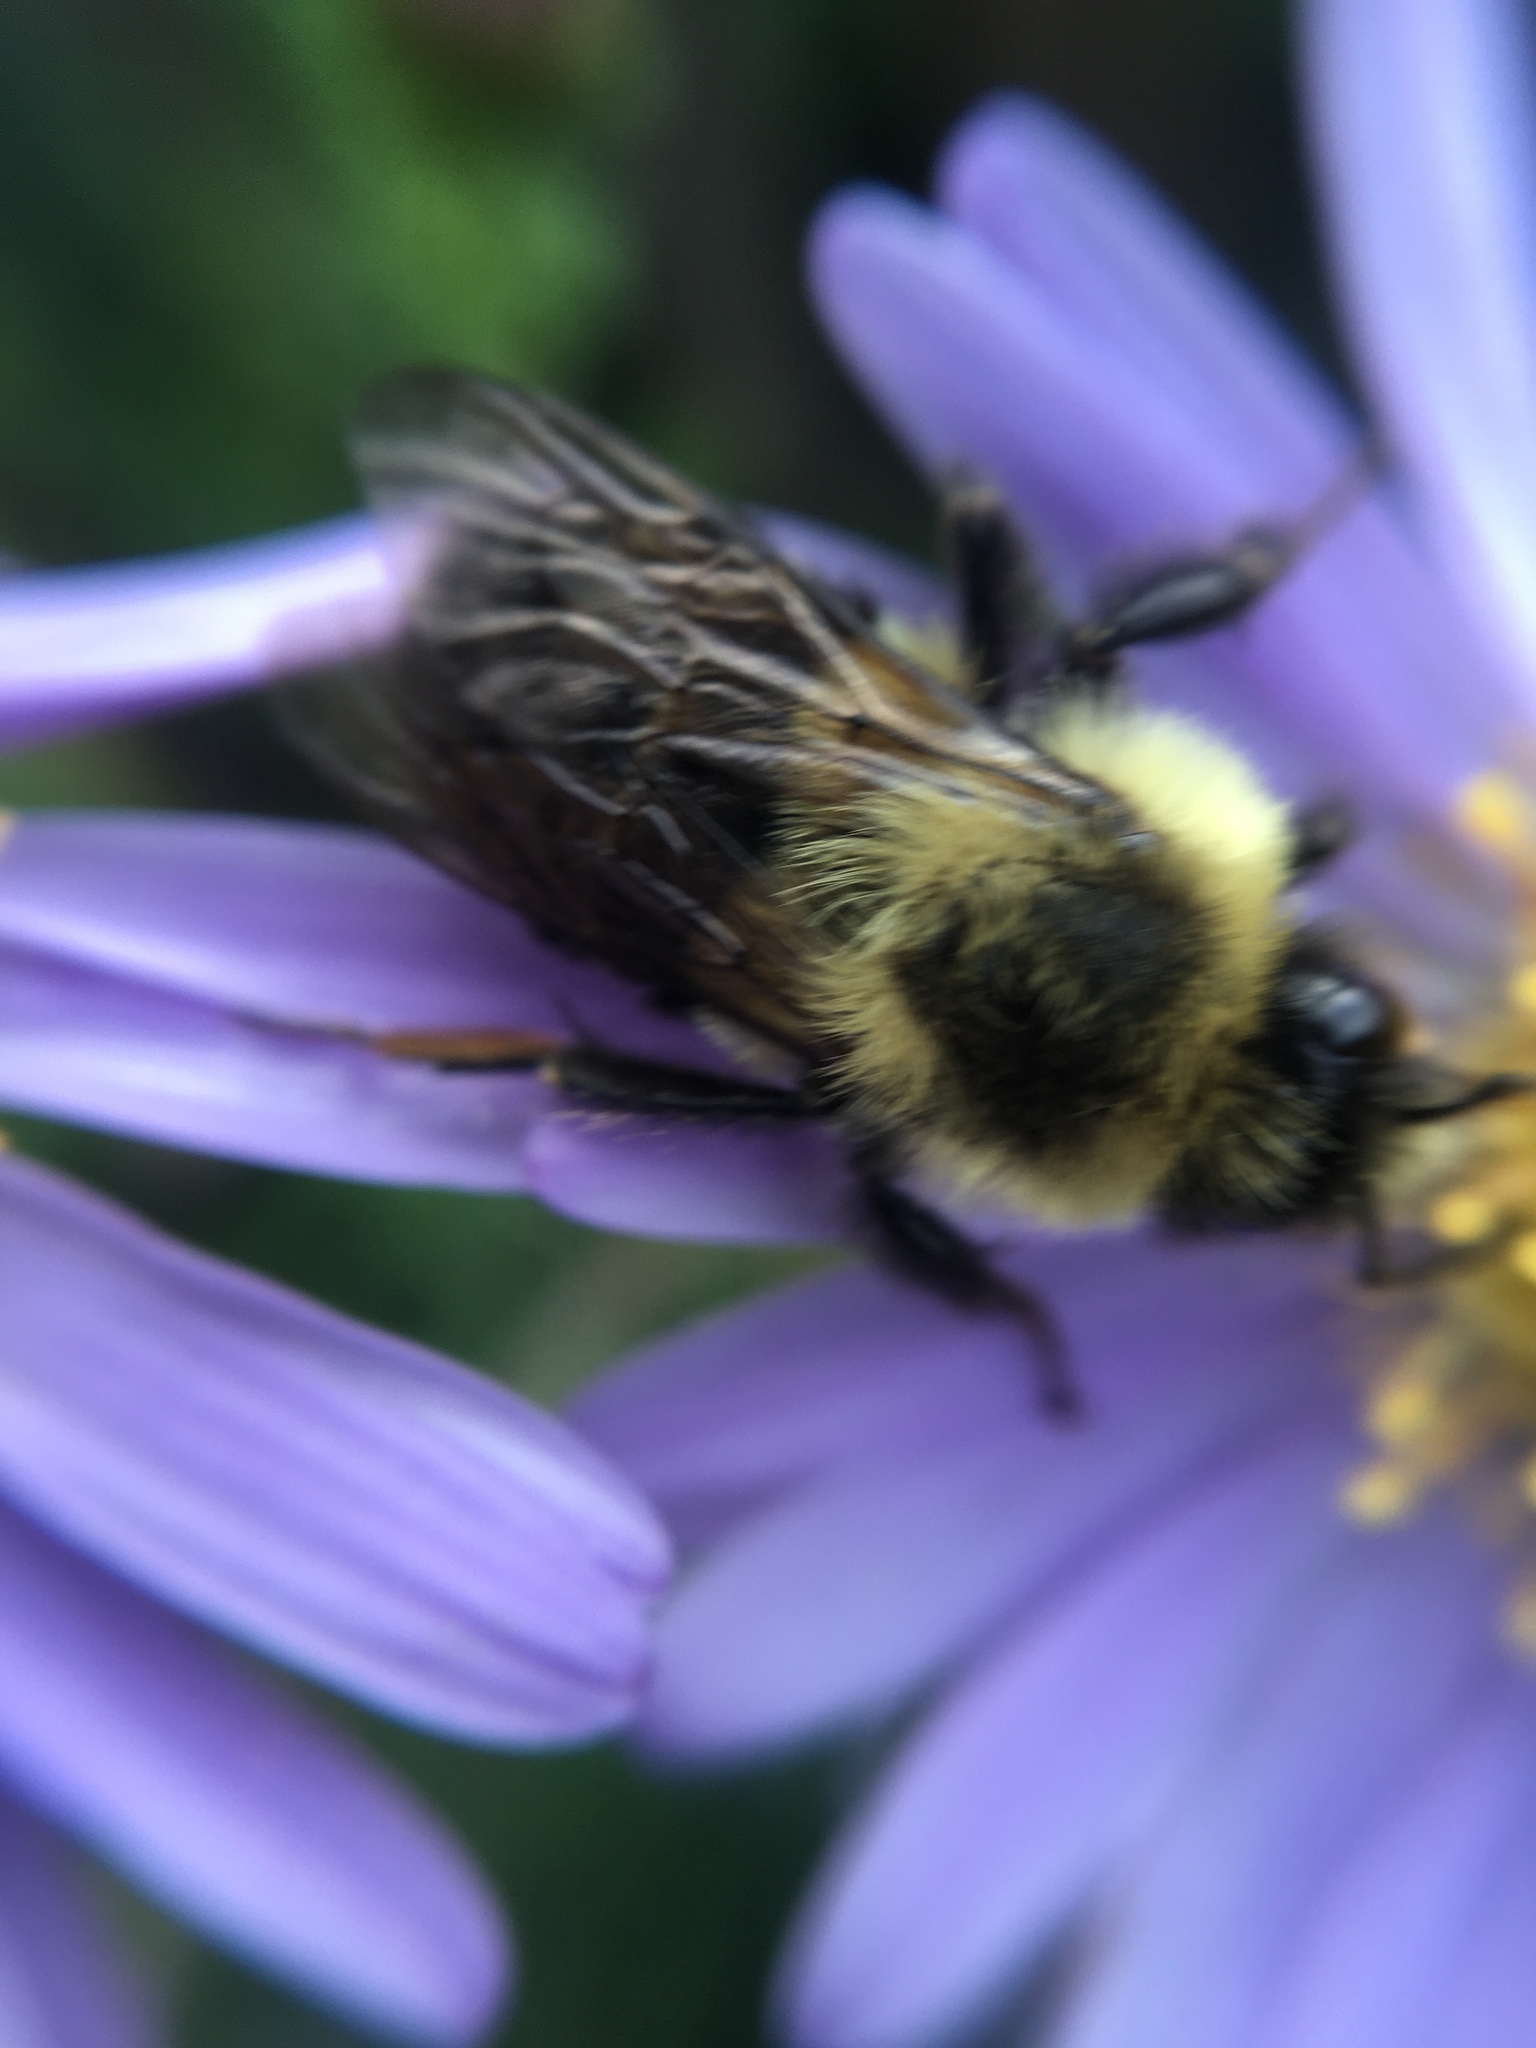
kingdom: Animalia
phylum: Arthropoda
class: Insecta
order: Hymenoptera
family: Apidae
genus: Bombus
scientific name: Bombus impatiens
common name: Common eastern bumble bee
